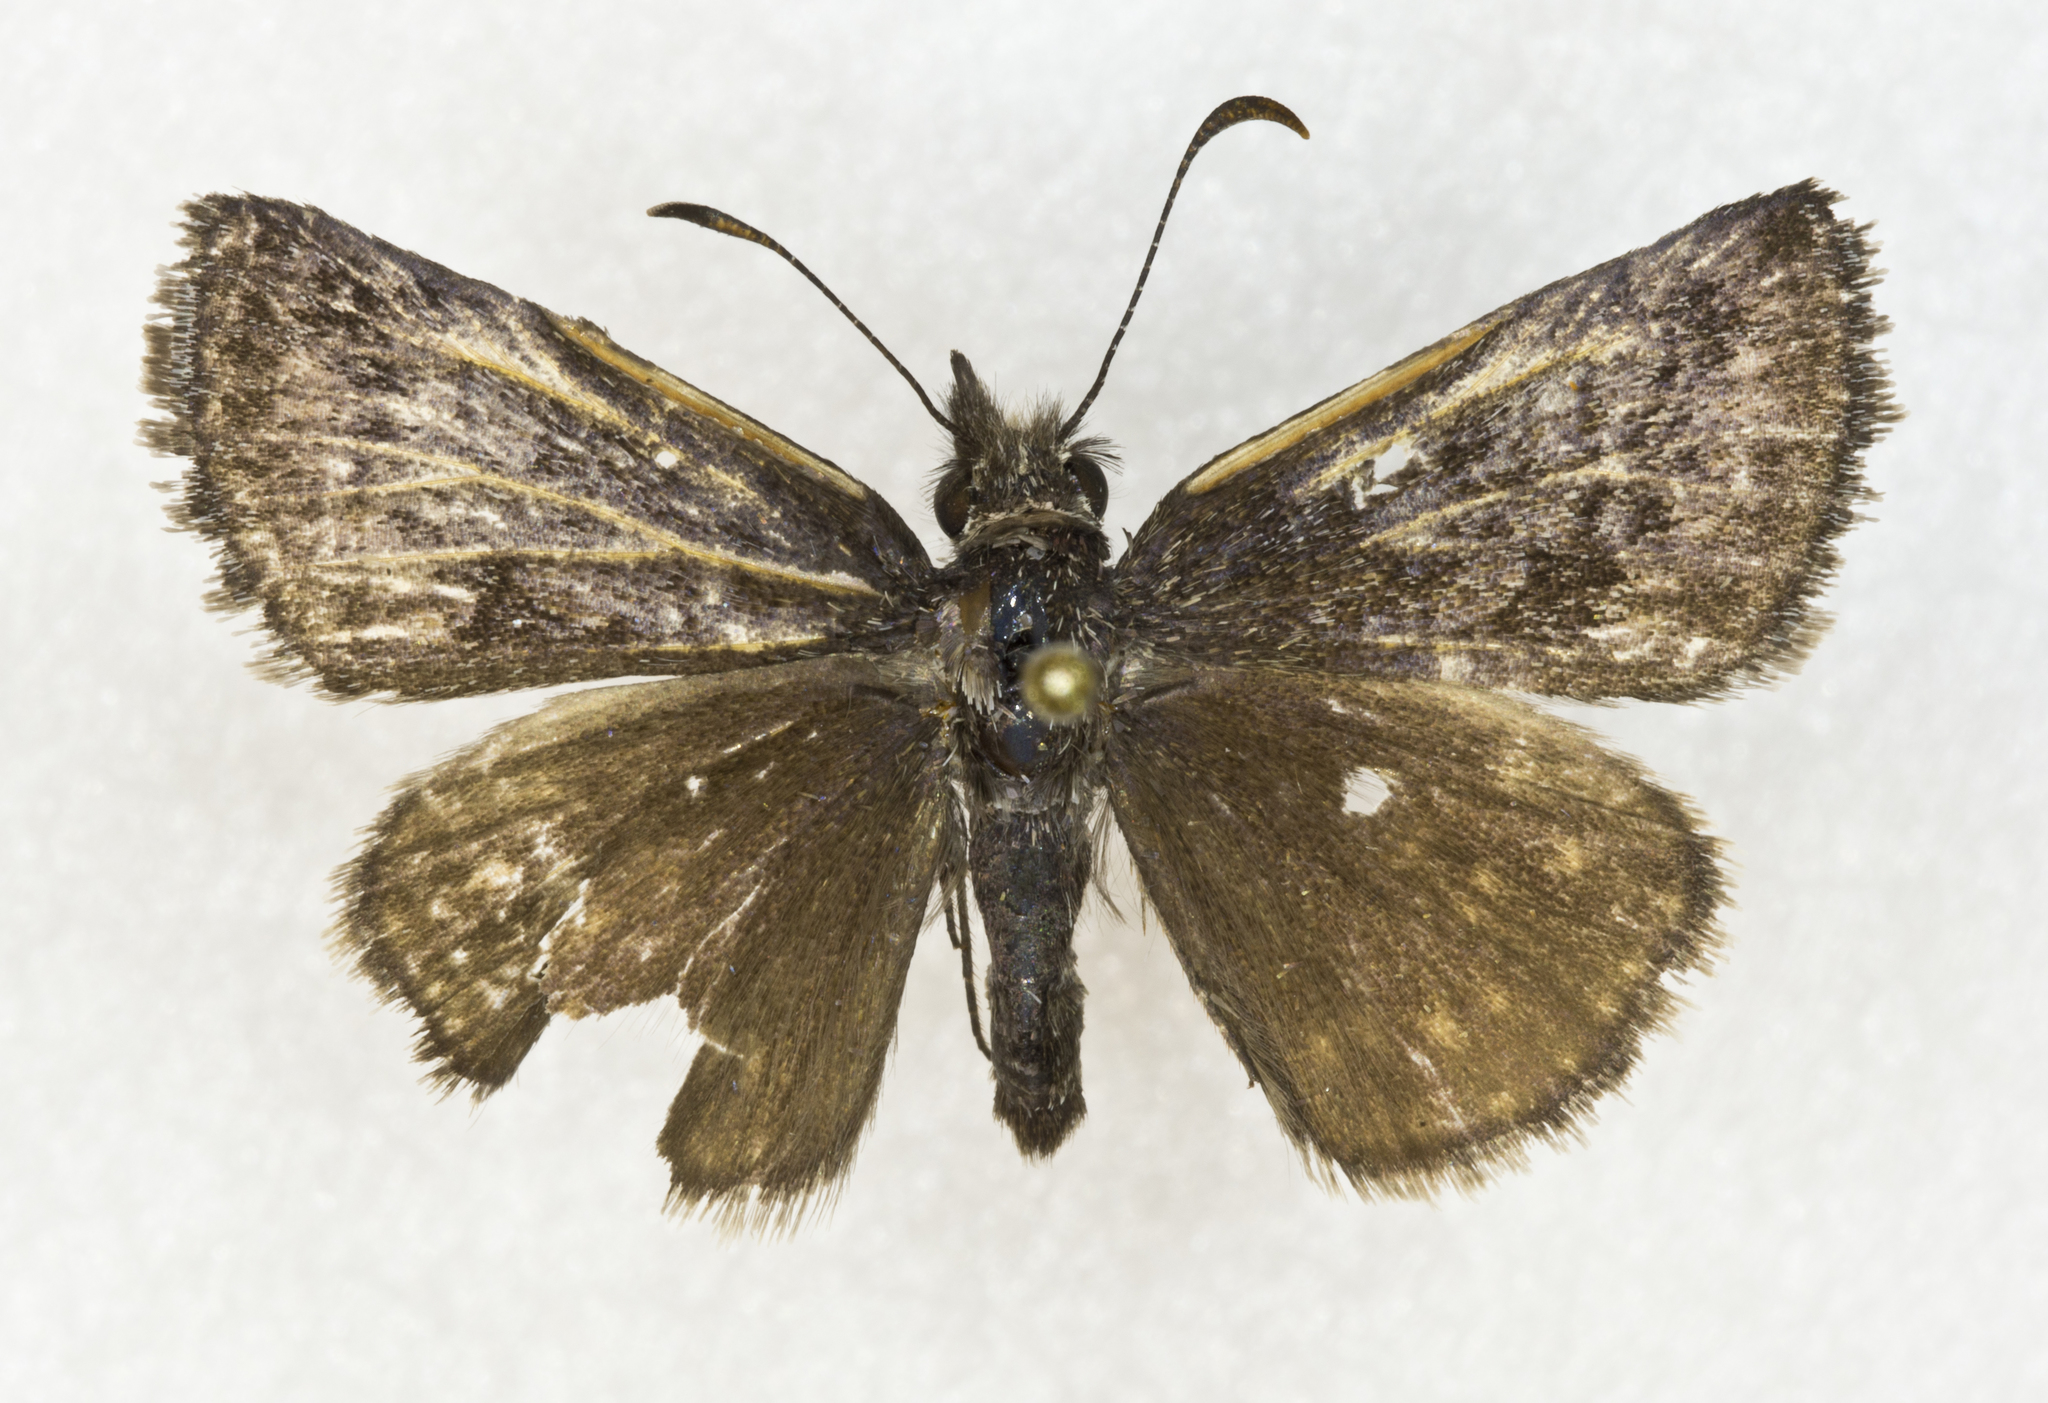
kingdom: Animalia
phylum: Arthropoda
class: Insecta
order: Lepidoptera
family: Hesperiidae
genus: Erynnis
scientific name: Erynnis icelus
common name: Dreamy duskywing
